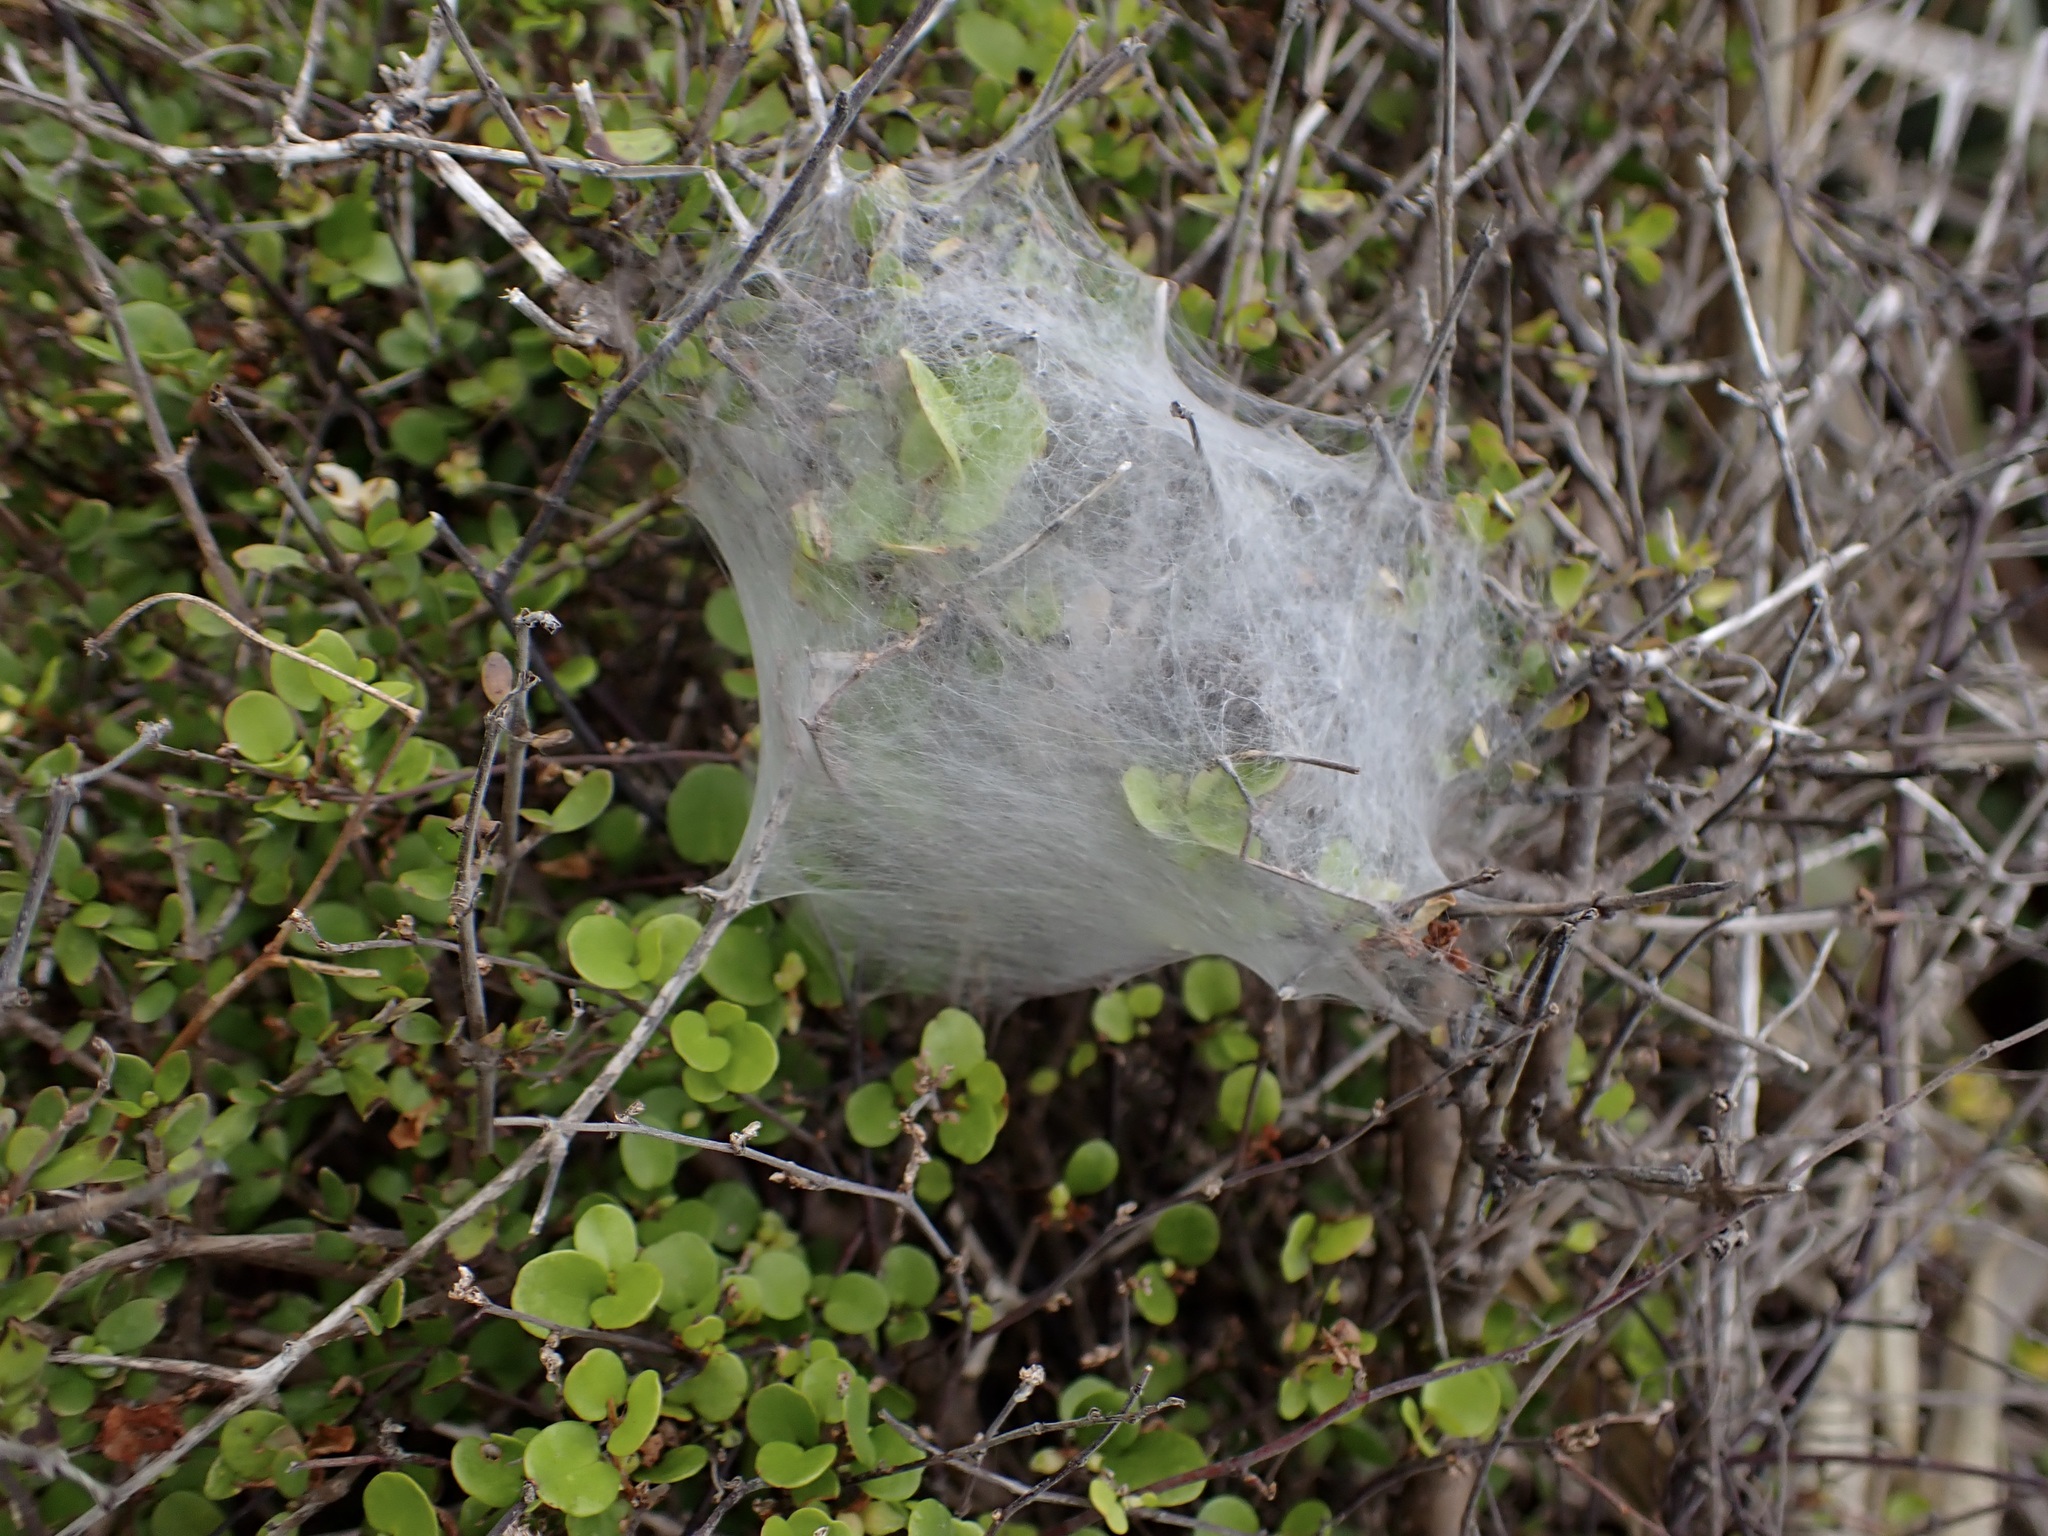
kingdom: Animalia
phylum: Arthropoda
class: Arachnida
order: Araneae
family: Pisauridae
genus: Dolomedes
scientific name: Dolomedes minor
